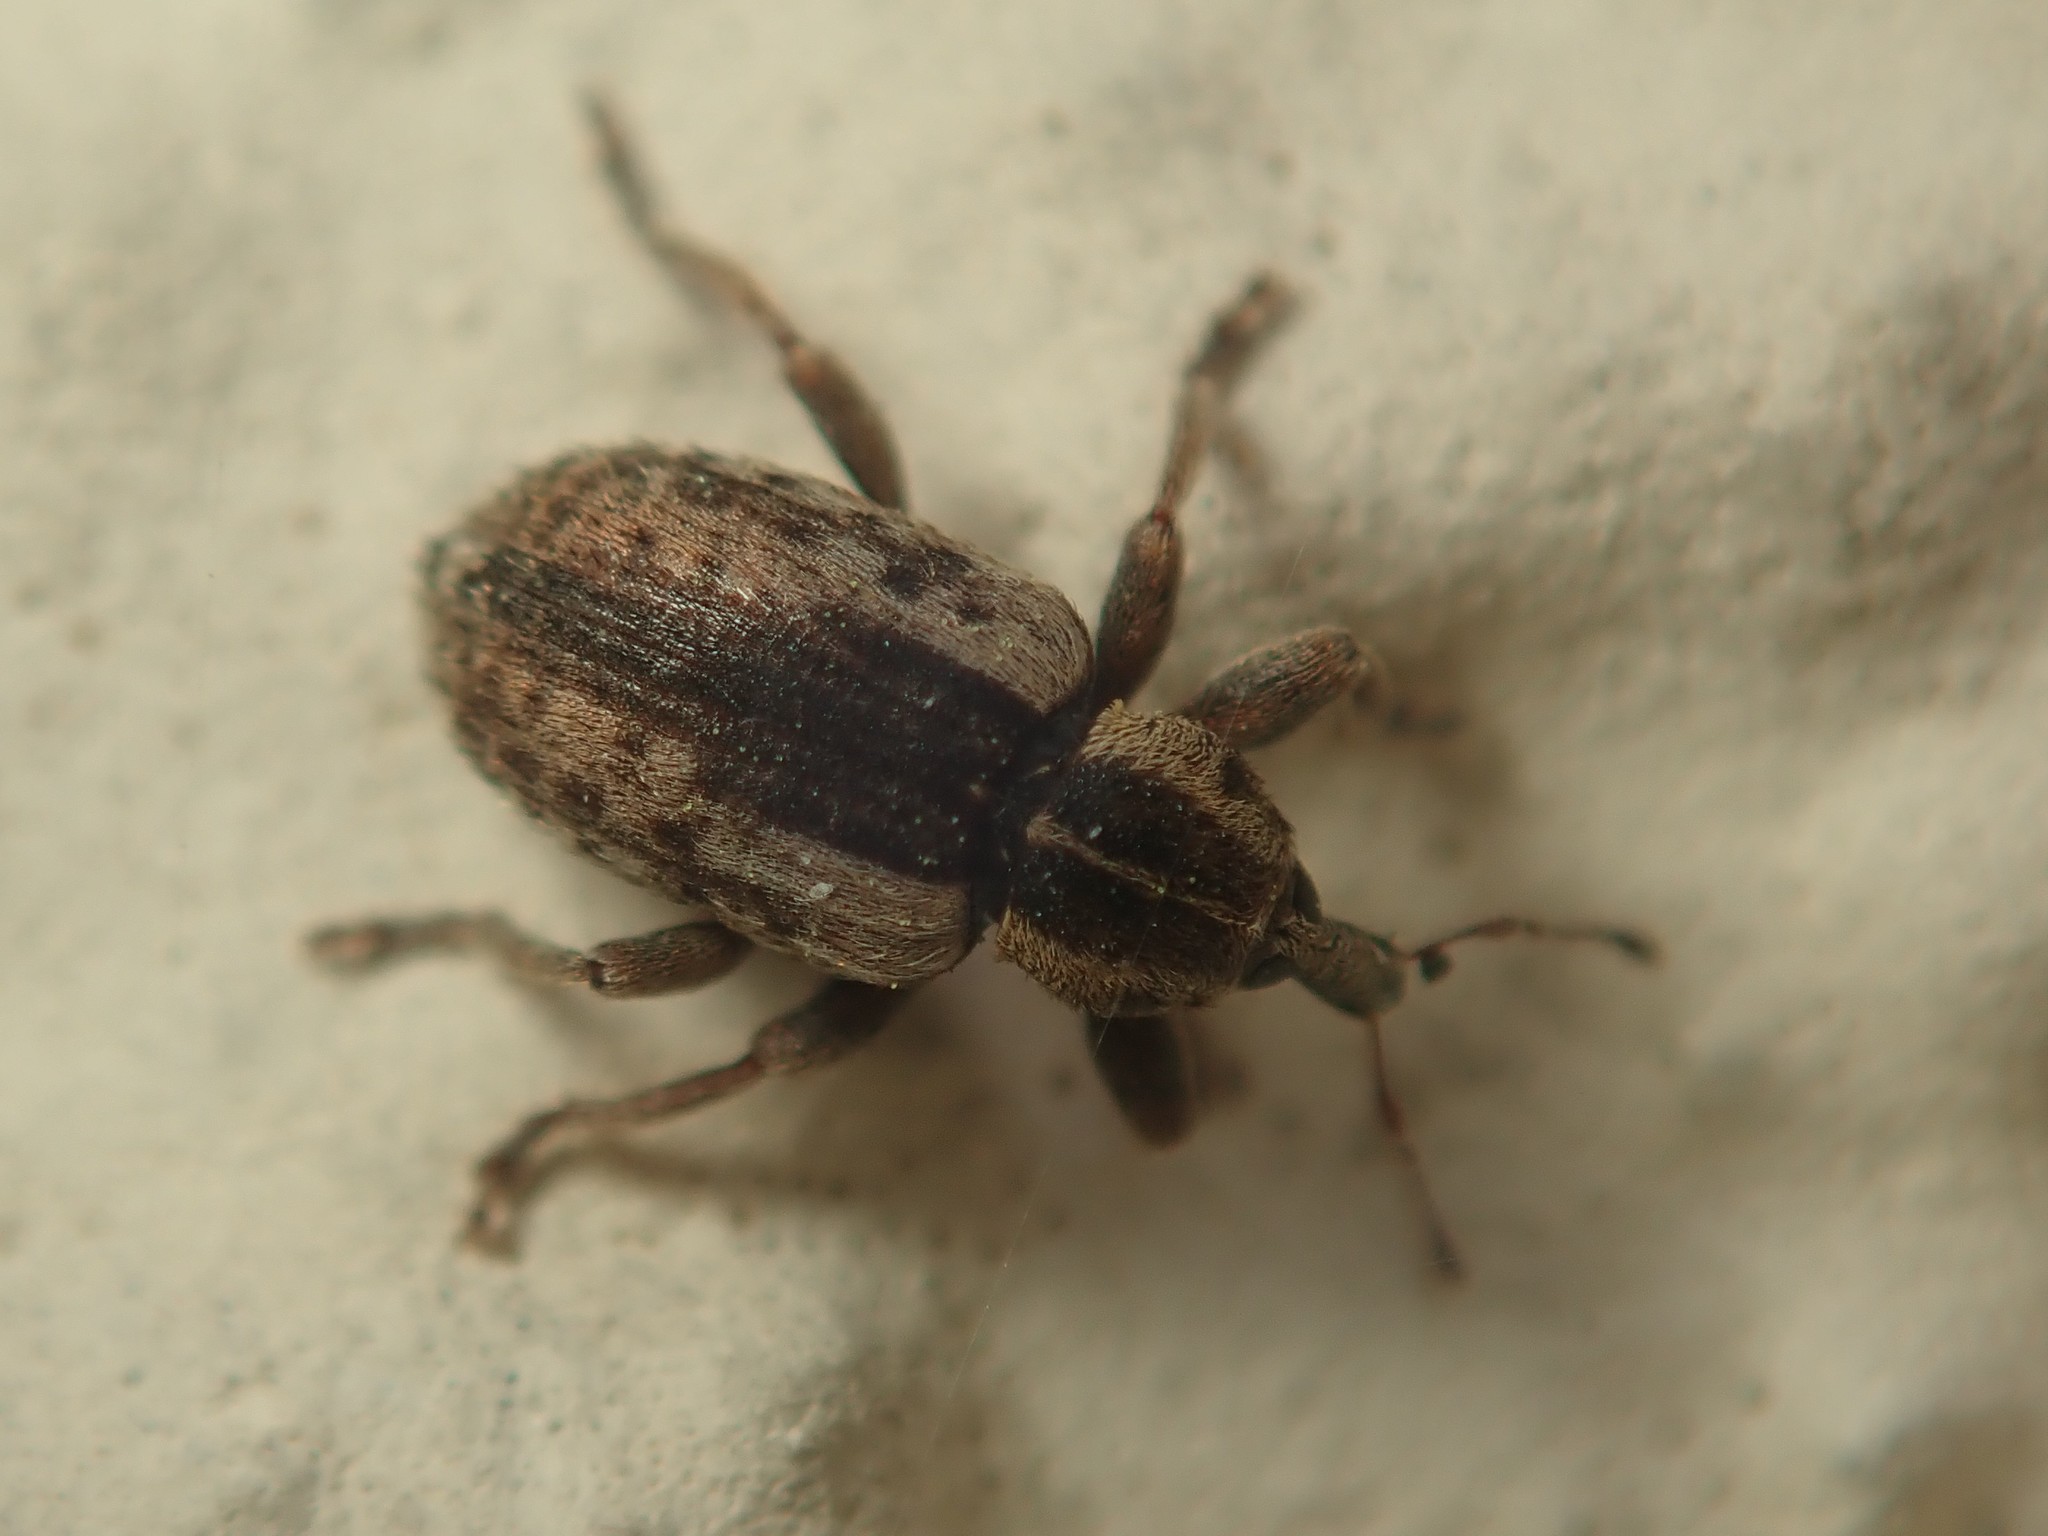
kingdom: Animalia
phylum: Arthropoda
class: Insecta
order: Coleoptera
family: Curculionidae
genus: Hypera
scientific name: Hypera postica
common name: Weevil
